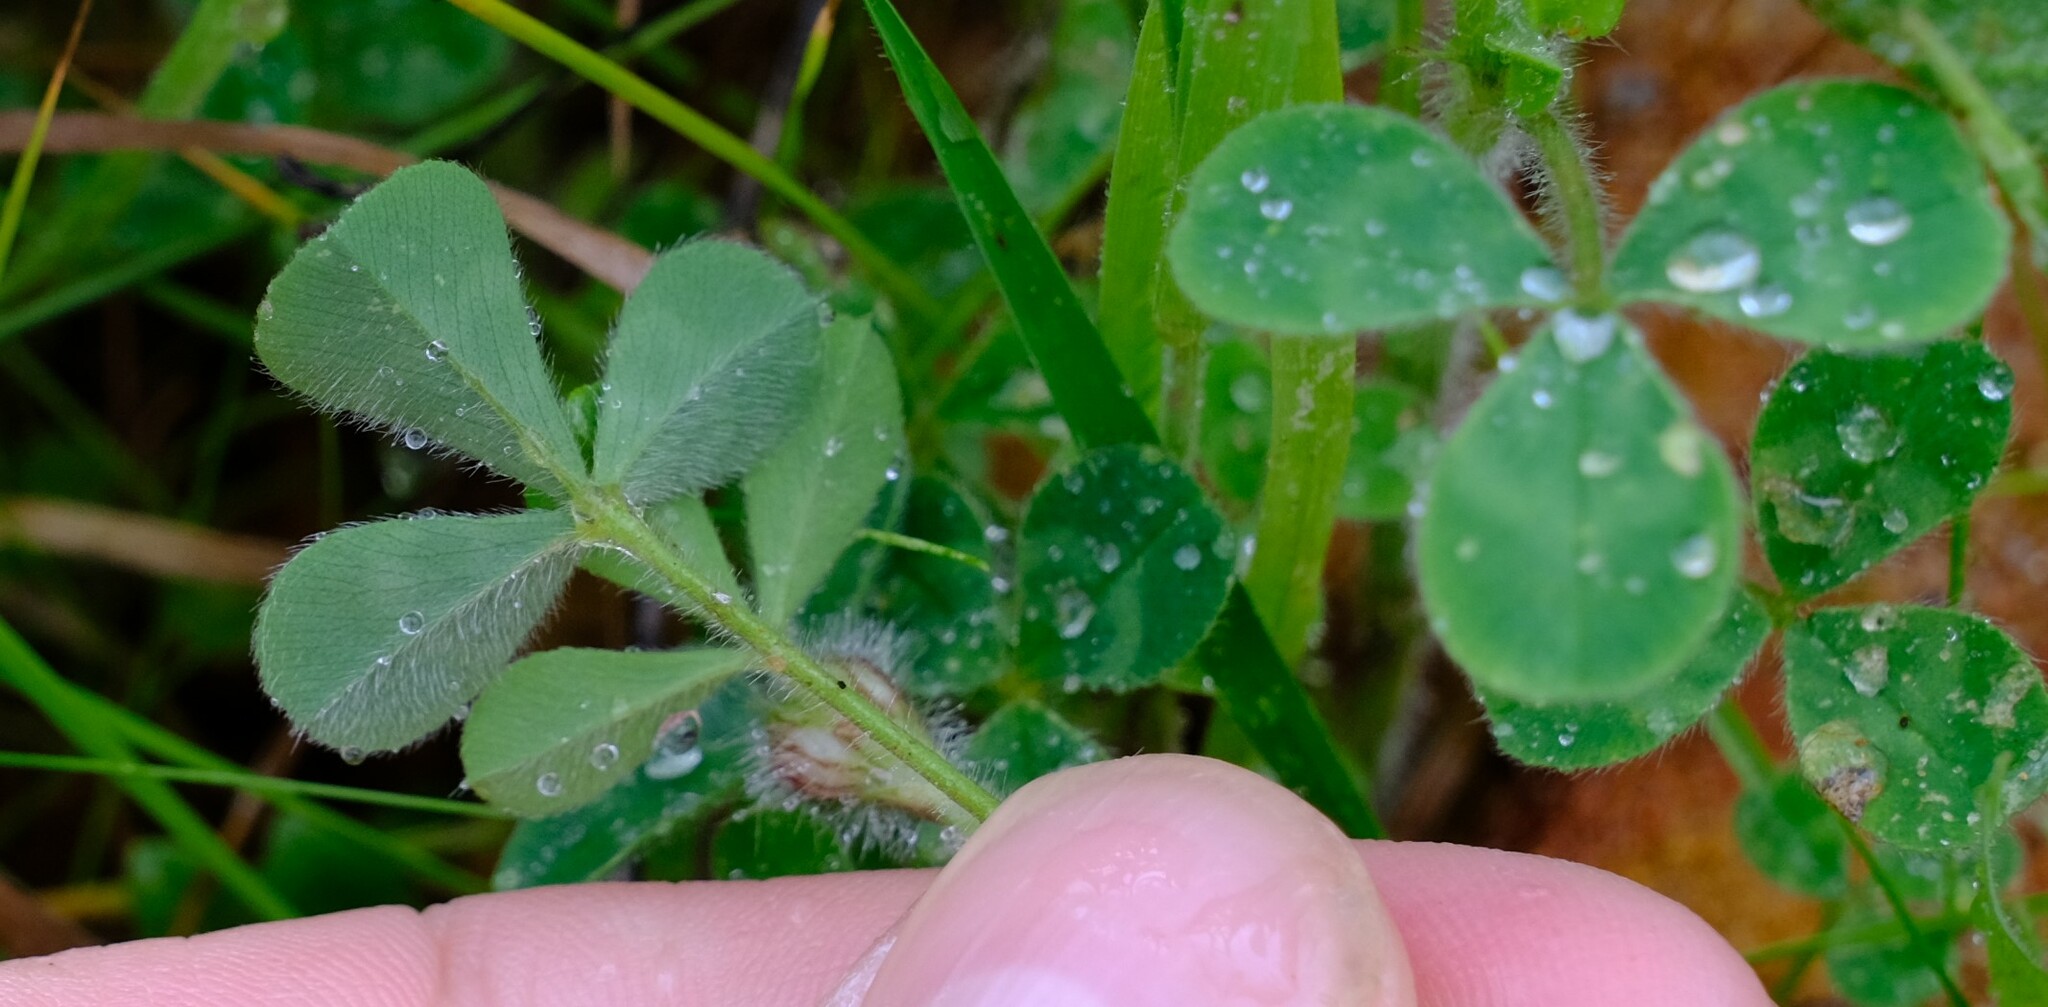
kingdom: Plantae
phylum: Tracheophyta
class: Magnoliopsida
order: Fabales
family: Fabaceae
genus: Trifolium
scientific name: Trifolium hirtum
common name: Rose clover
